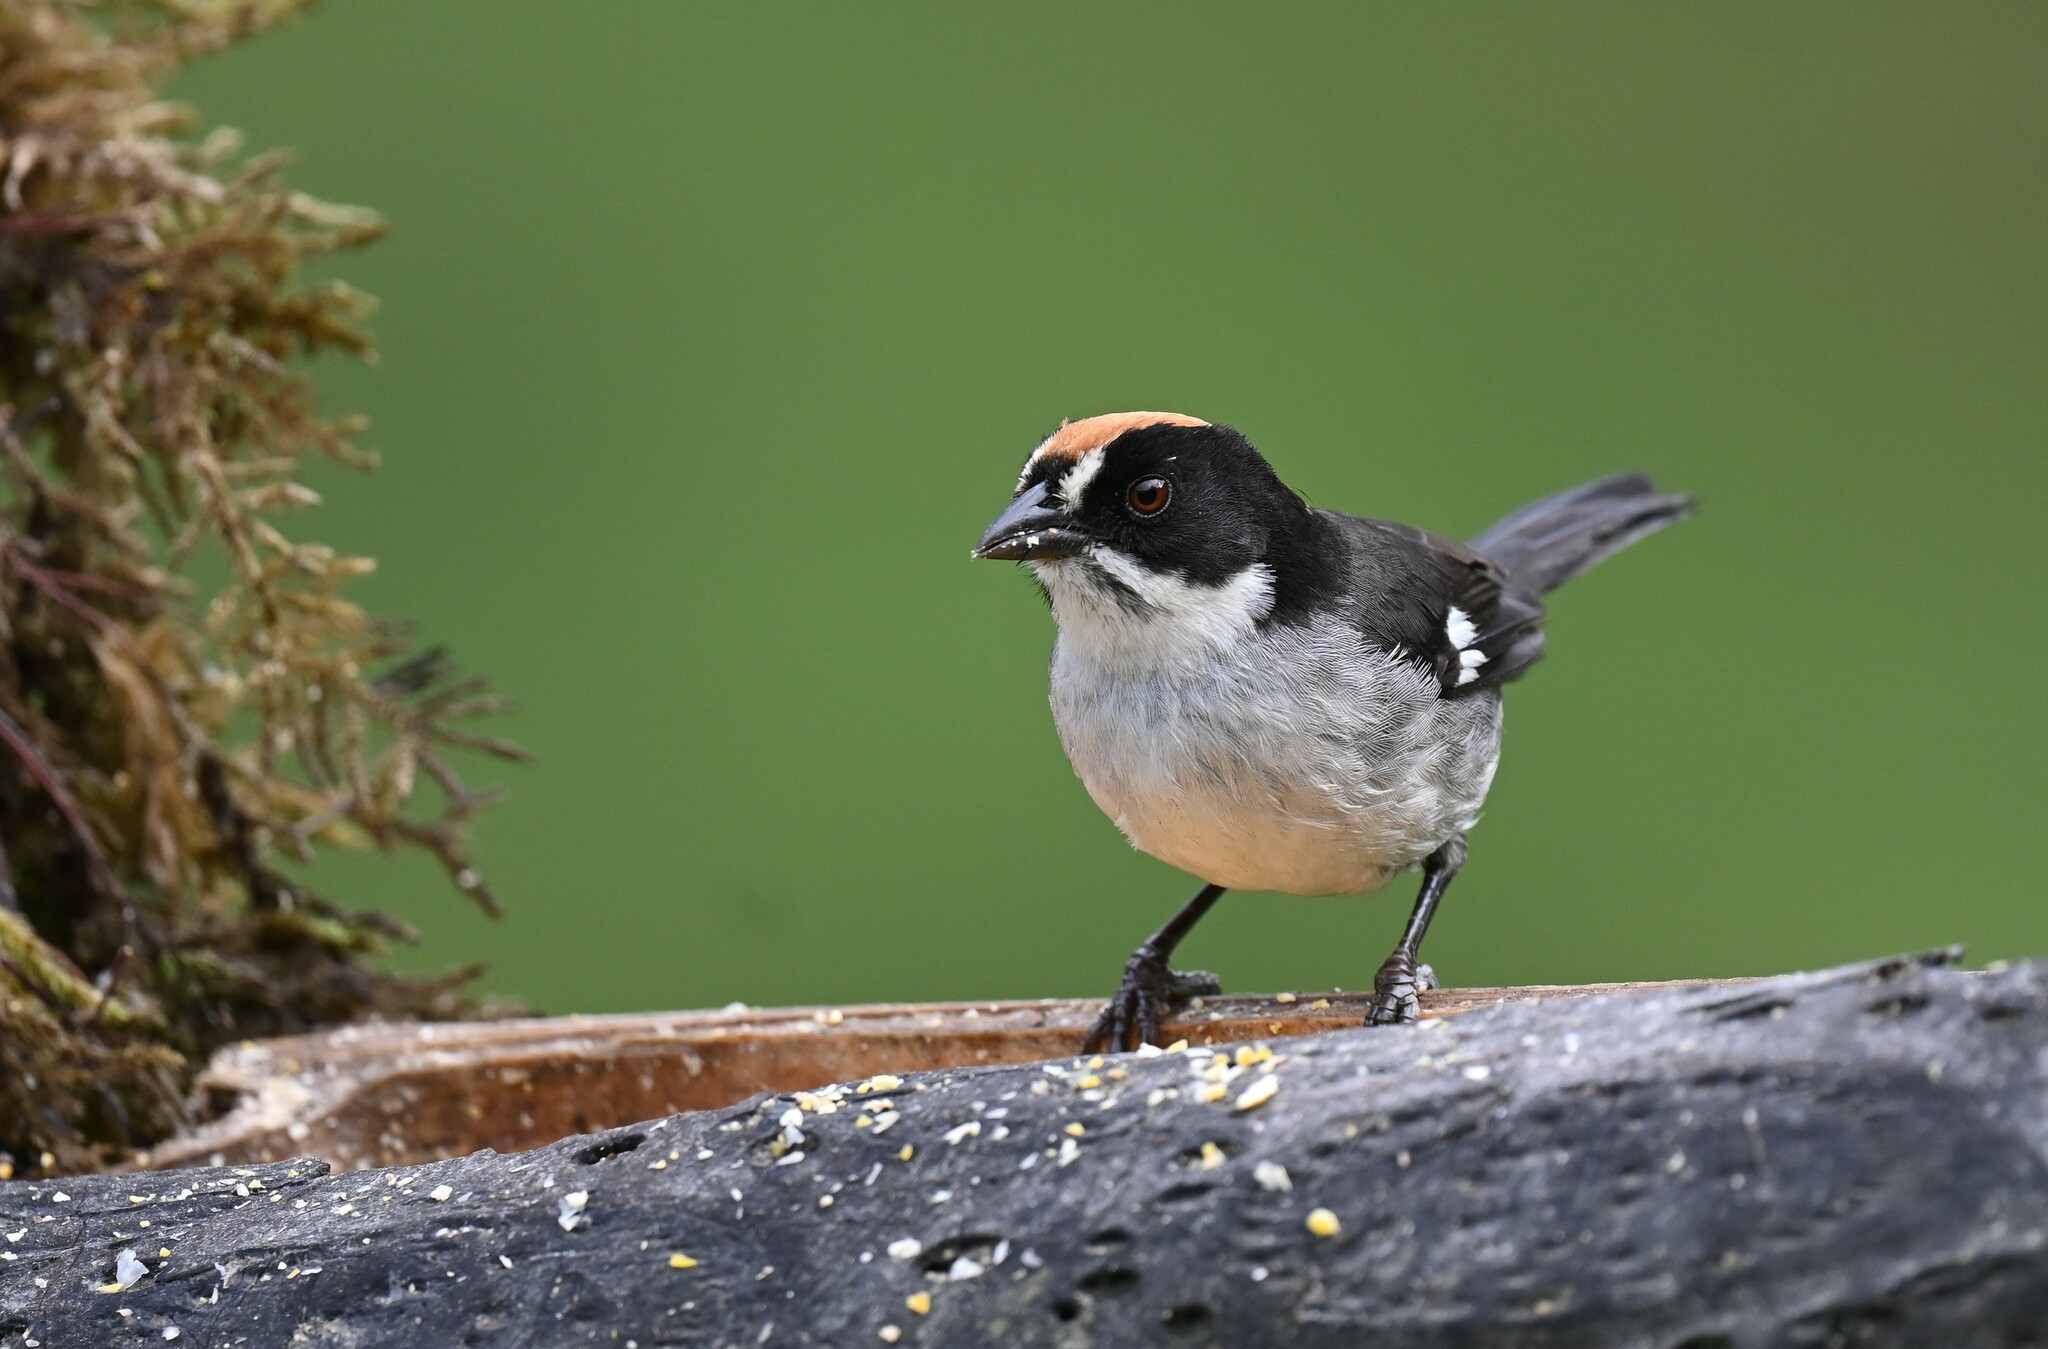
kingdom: Animalia
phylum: Chordata
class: Aves
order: Passeriformes
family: Passerellidae
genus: Atlapetes
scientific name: Atlapetes leucopterus
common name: White-winged brushfinch
